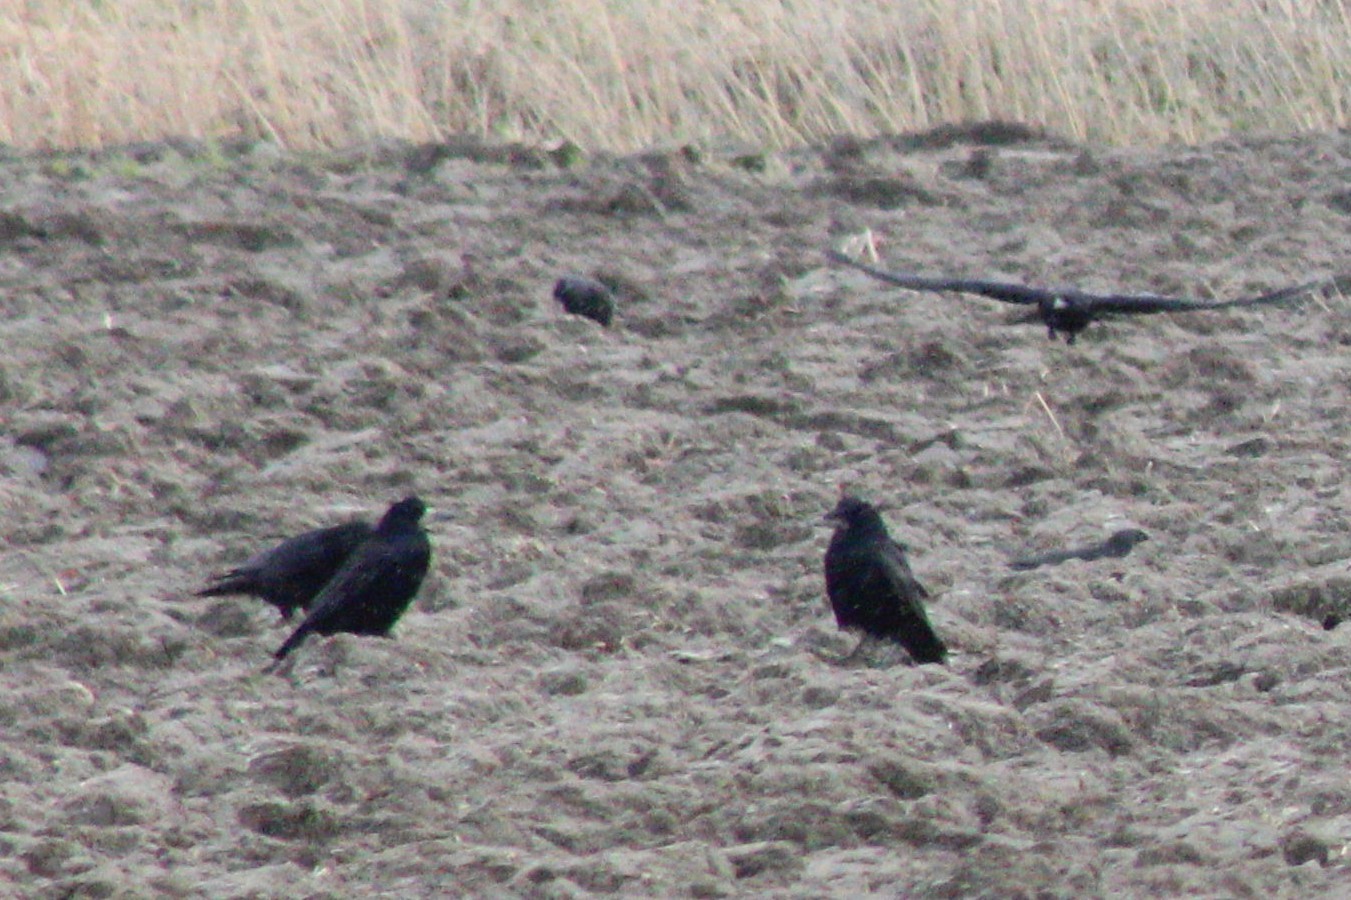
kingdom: Animalia
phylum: Chordata
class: Aves
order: Passeriformes
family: Corvidae
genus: Corvus
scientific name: Corvus corone
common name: Carrion crow
